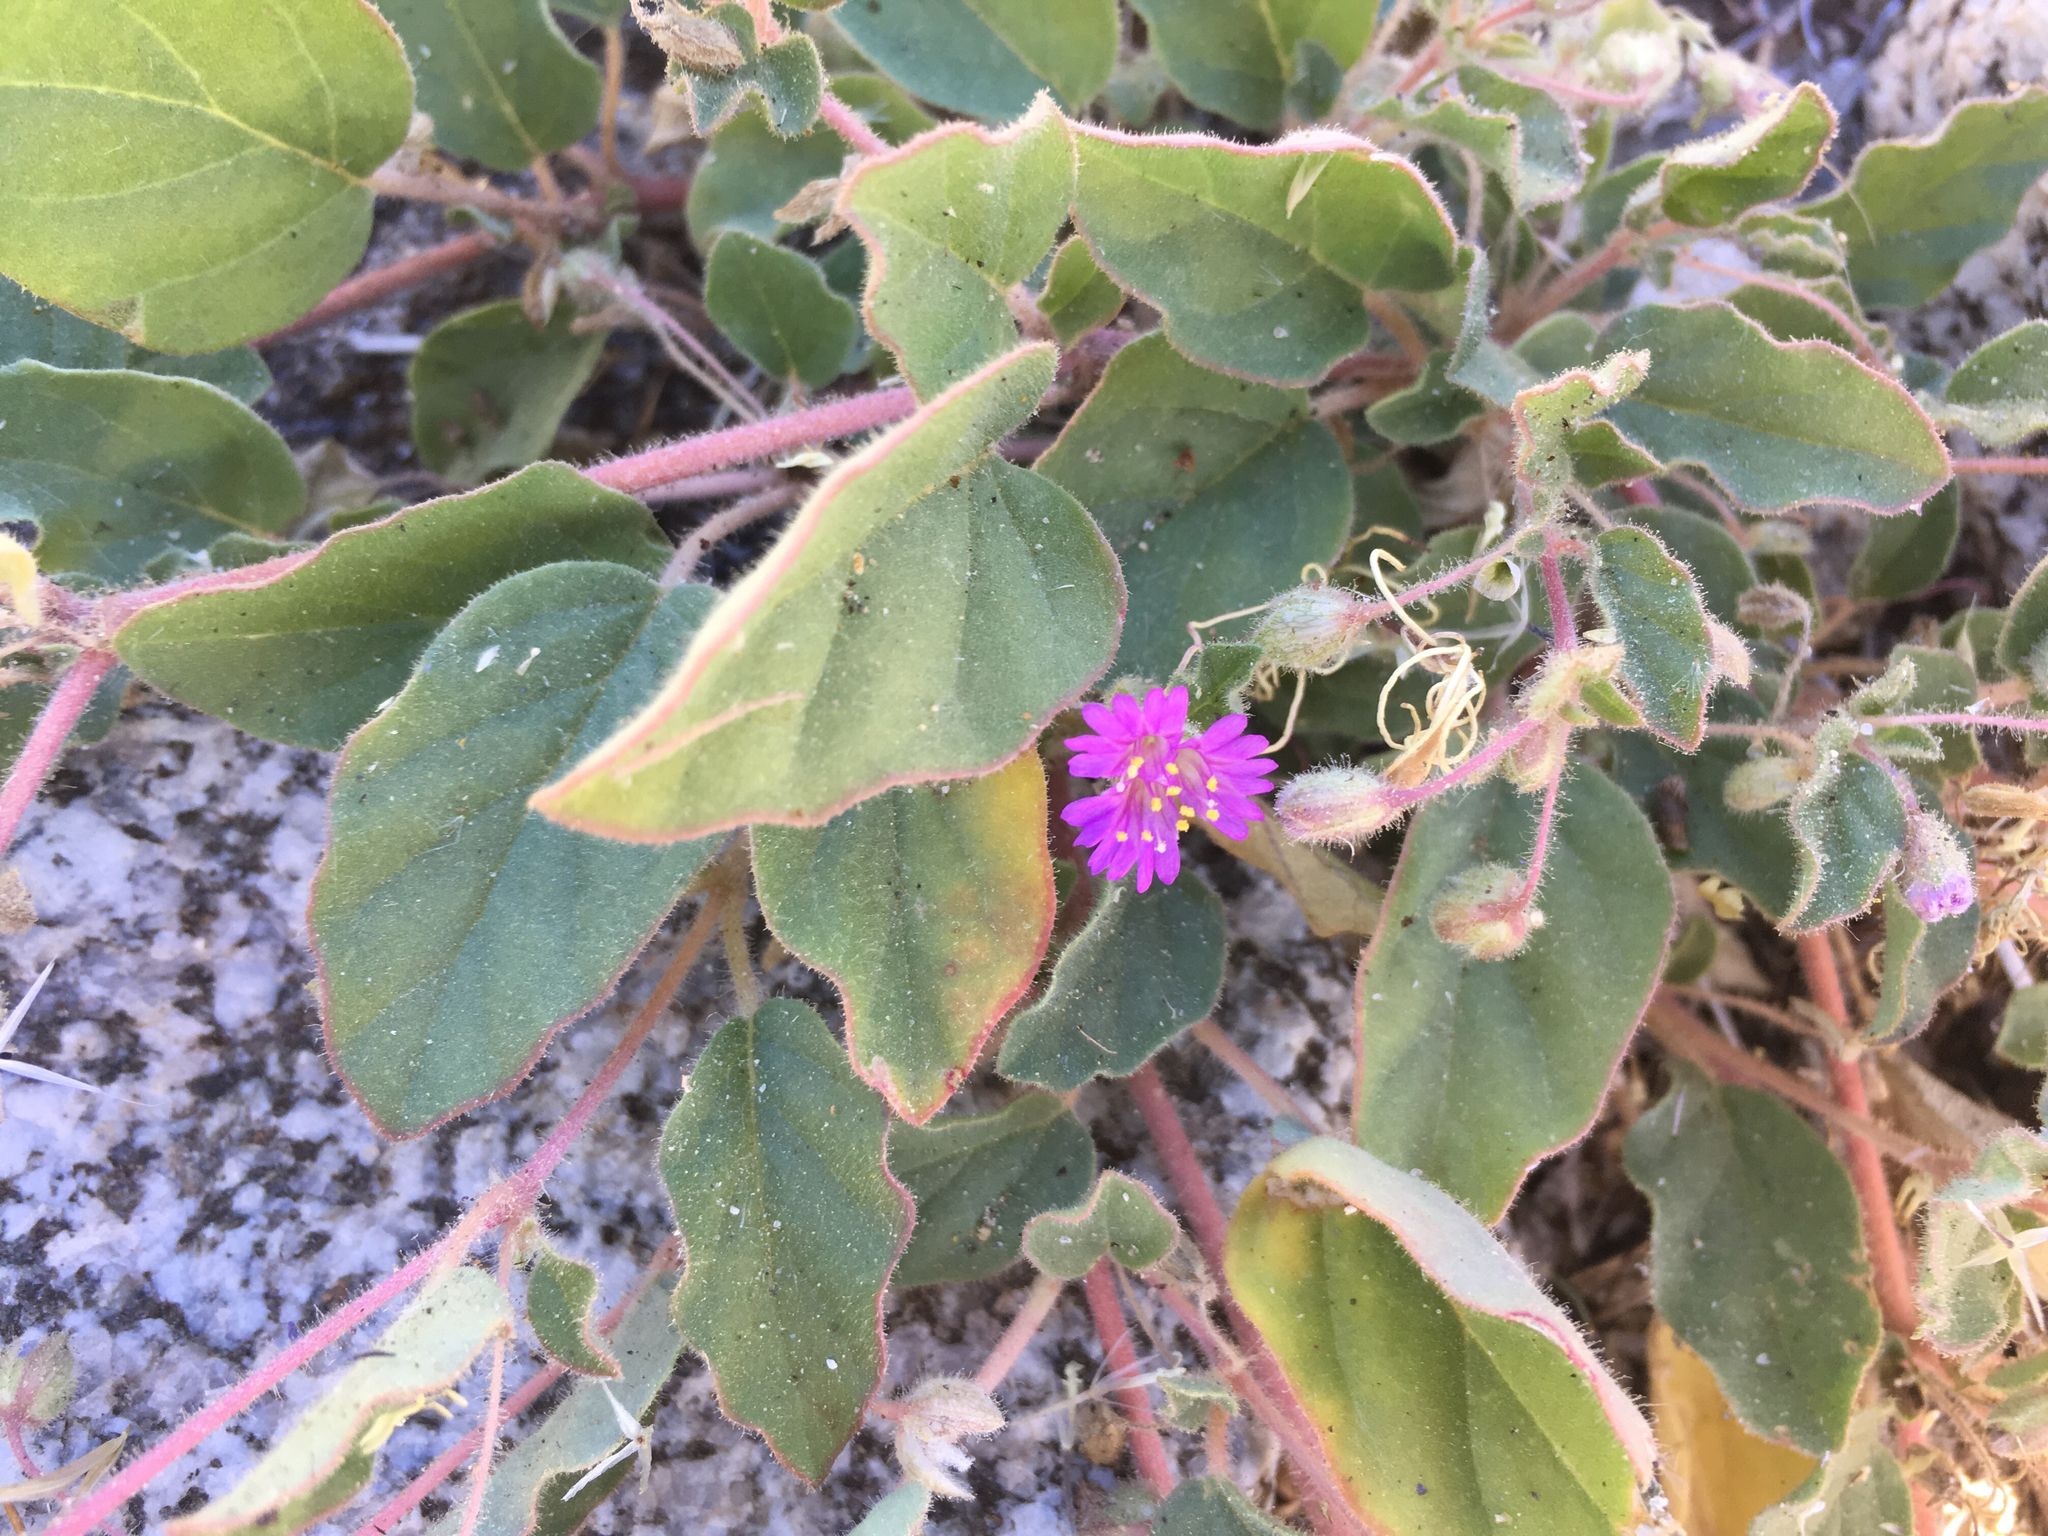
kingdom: Plantae
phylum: Tracheophyta
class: Magnoliopsida
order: Caryophyllales
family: Nyctaginaceae
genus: Allionia
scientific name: Allionia incarnata
